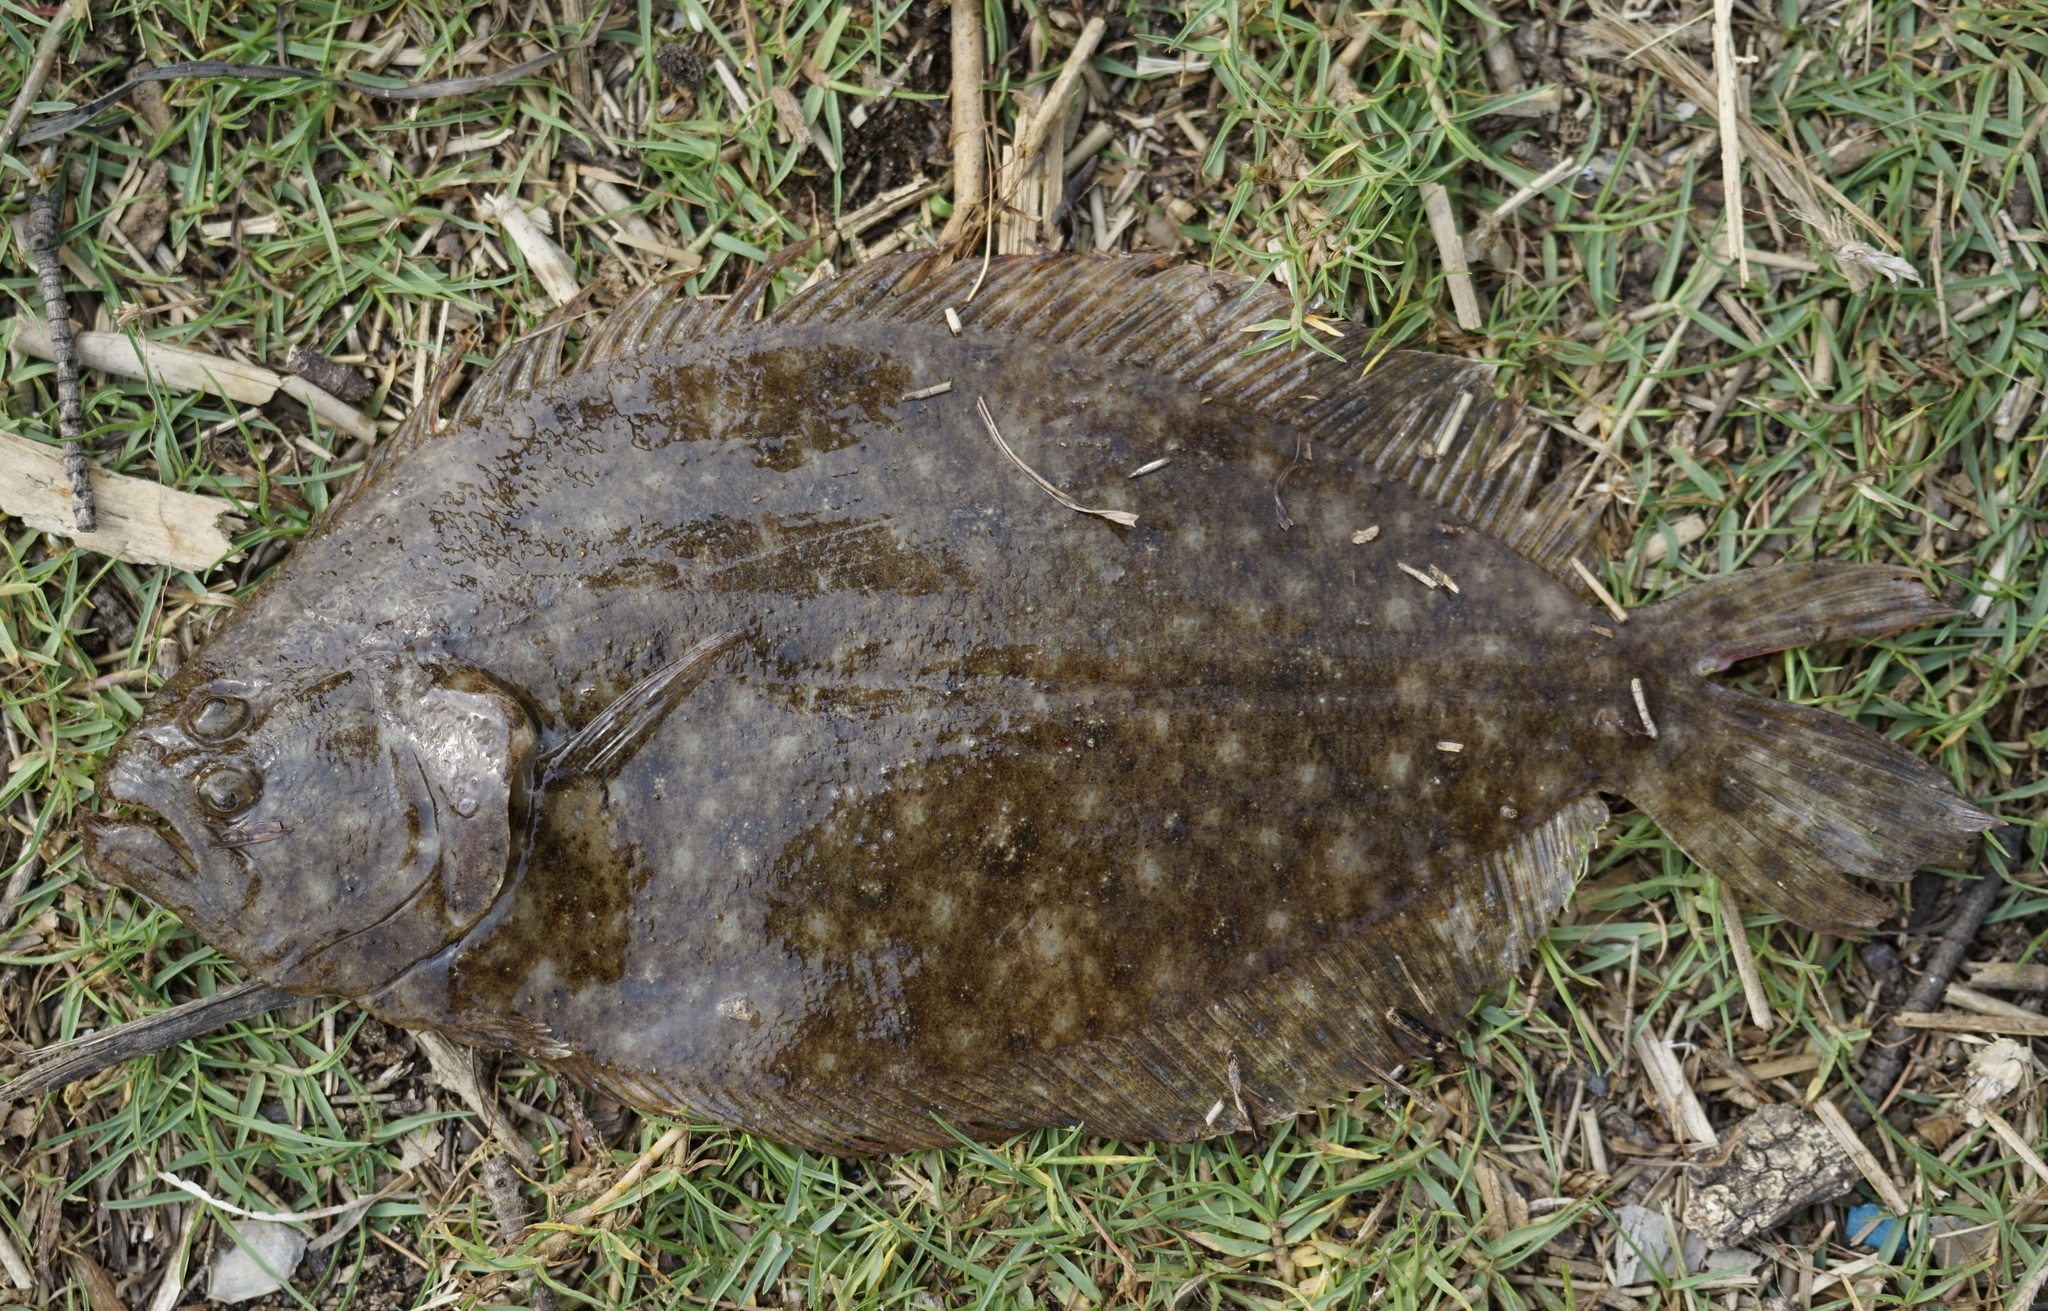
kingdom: Animalia
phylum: Chordata
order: Pleuronectiformes
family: Paralichthyidae
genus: Pseudorhombus
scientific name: Pseudorhombus arsius
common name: Largetooth flounder
